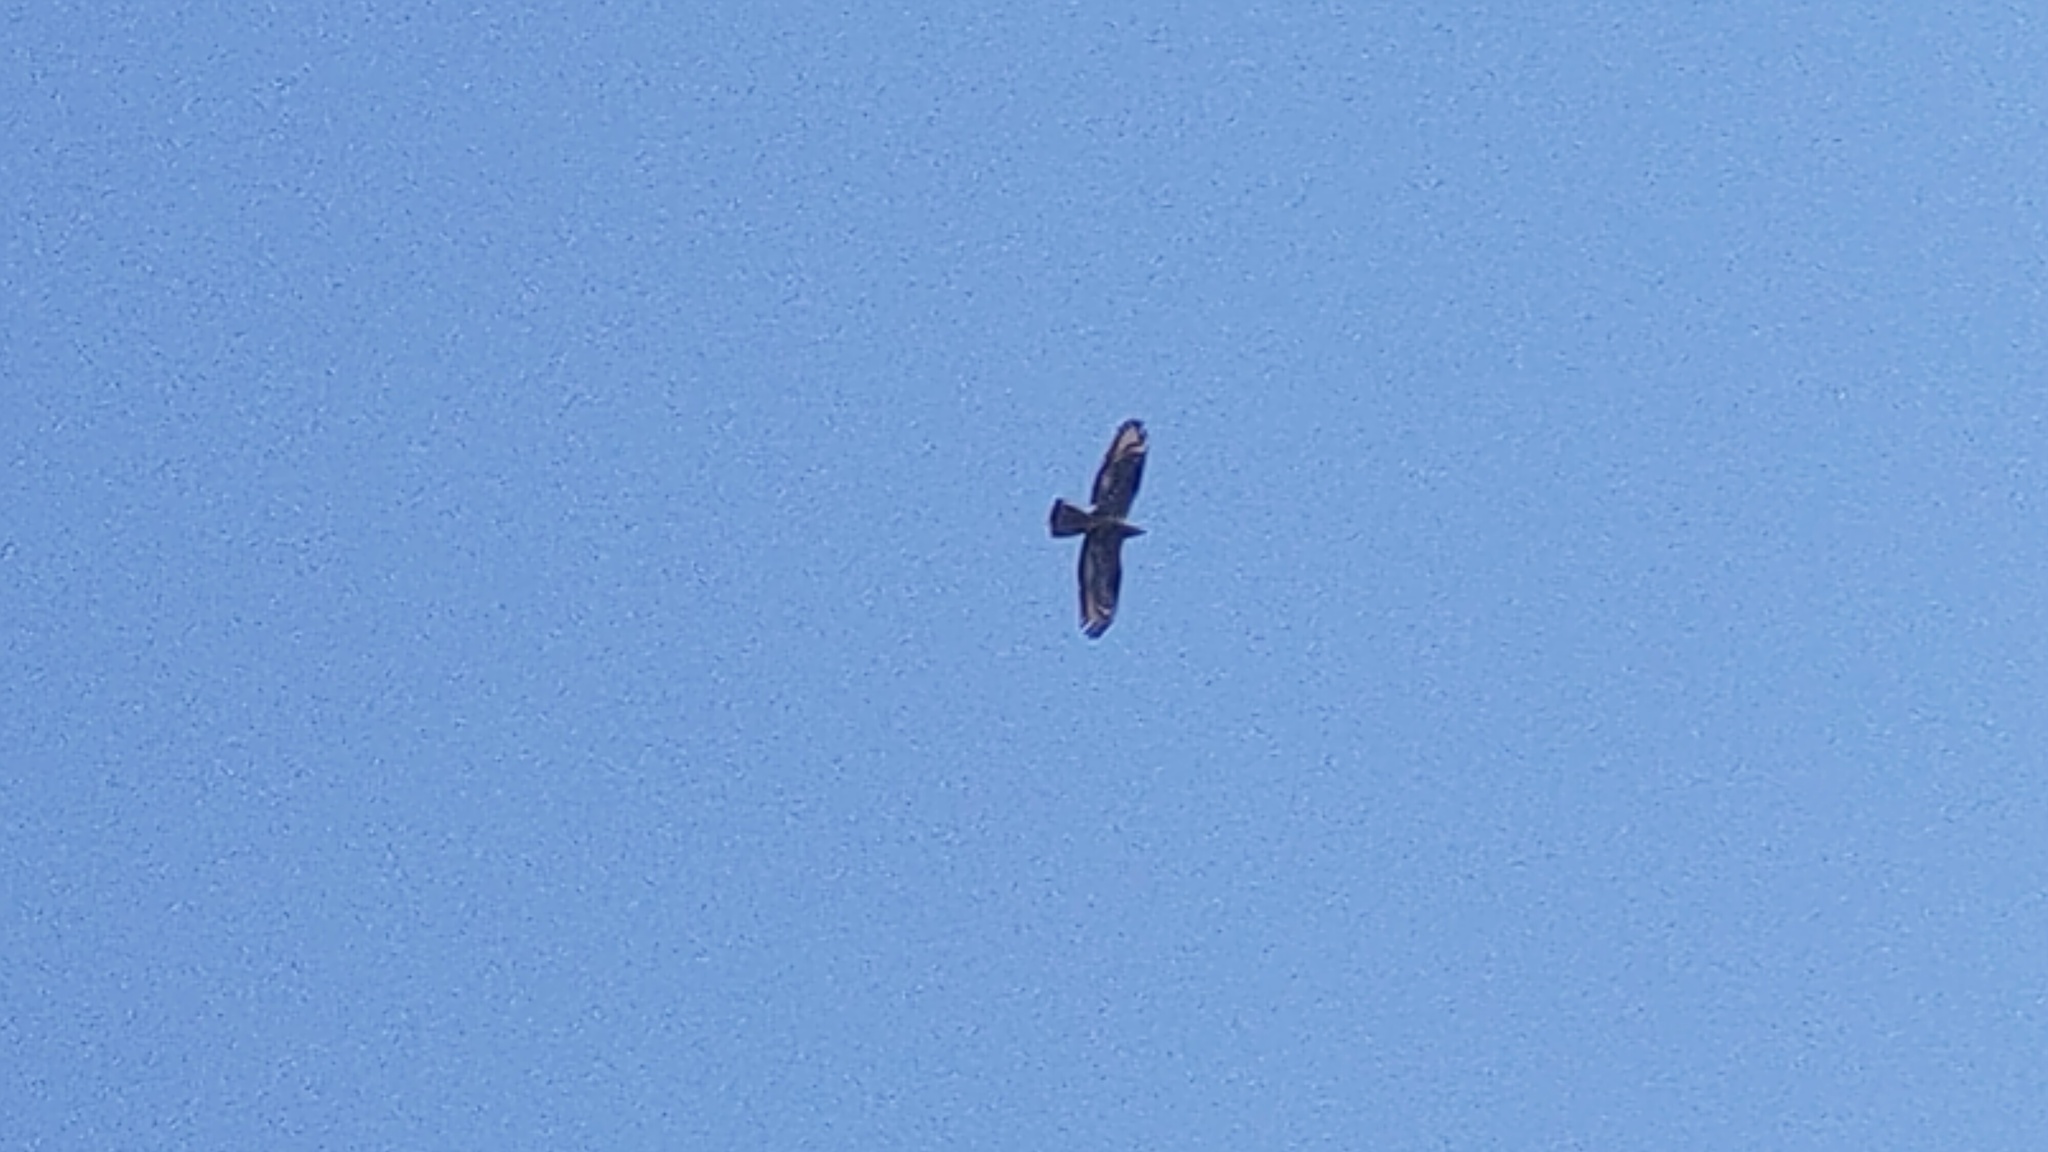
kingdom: Animalia
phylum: Chordata
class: Aves
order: Accipitriformes
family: Accipitridae
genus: Pernis
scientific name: Pernis apivorus
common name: European honey buzzard
